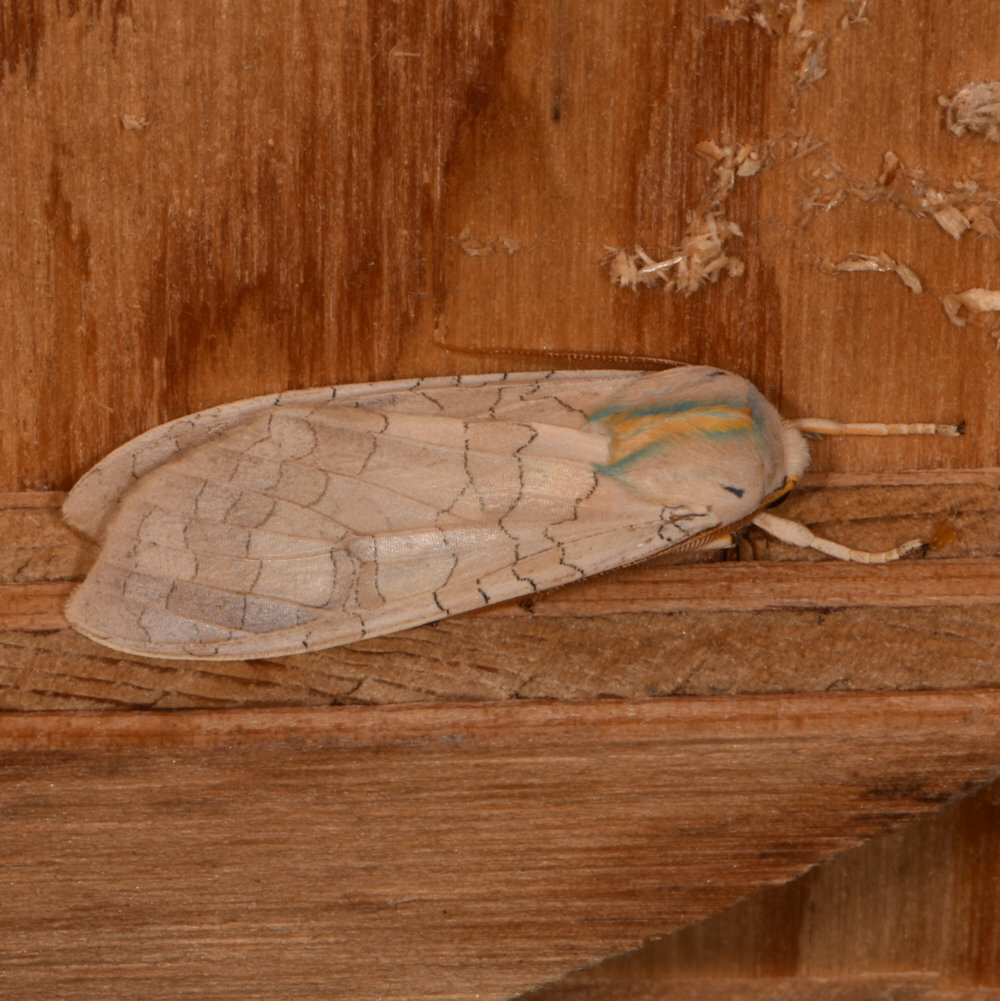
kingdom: Animalia
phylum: Arthropoda
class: Insecta
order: Lepidoptera
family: Erebidae
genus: Halysidota
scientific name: Halysidota tessellaris
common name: Banded tussock moth
